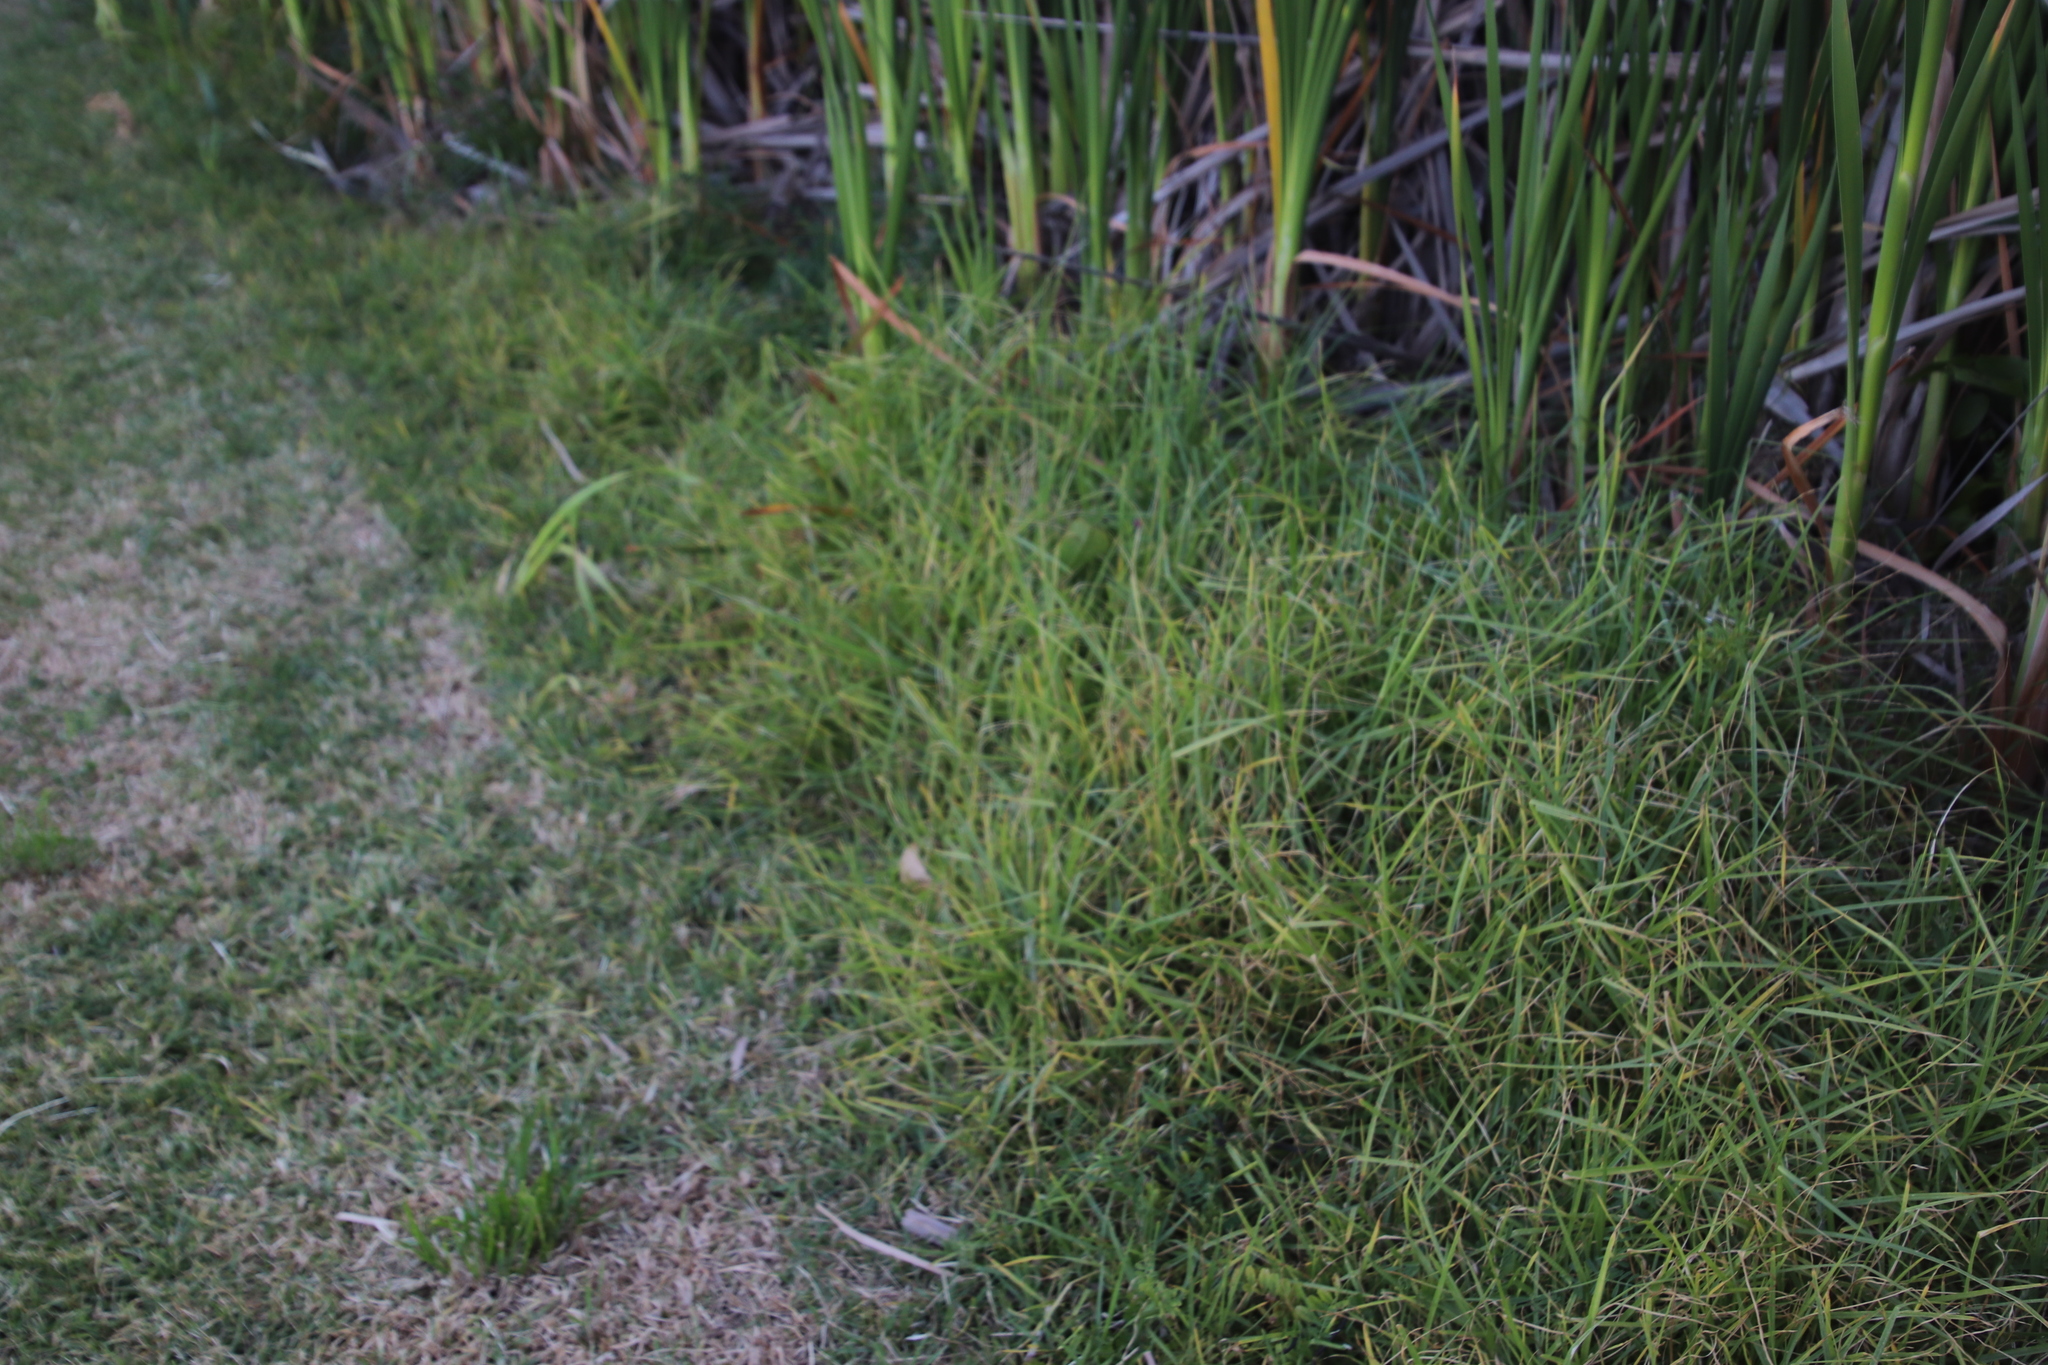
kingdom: Plantae
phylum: Tracheophyta
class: Liliopsida
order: Poales
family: Poaceae
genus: Cenchrus
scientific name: Cenchrus clandestinus
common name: Kikuyugrass
